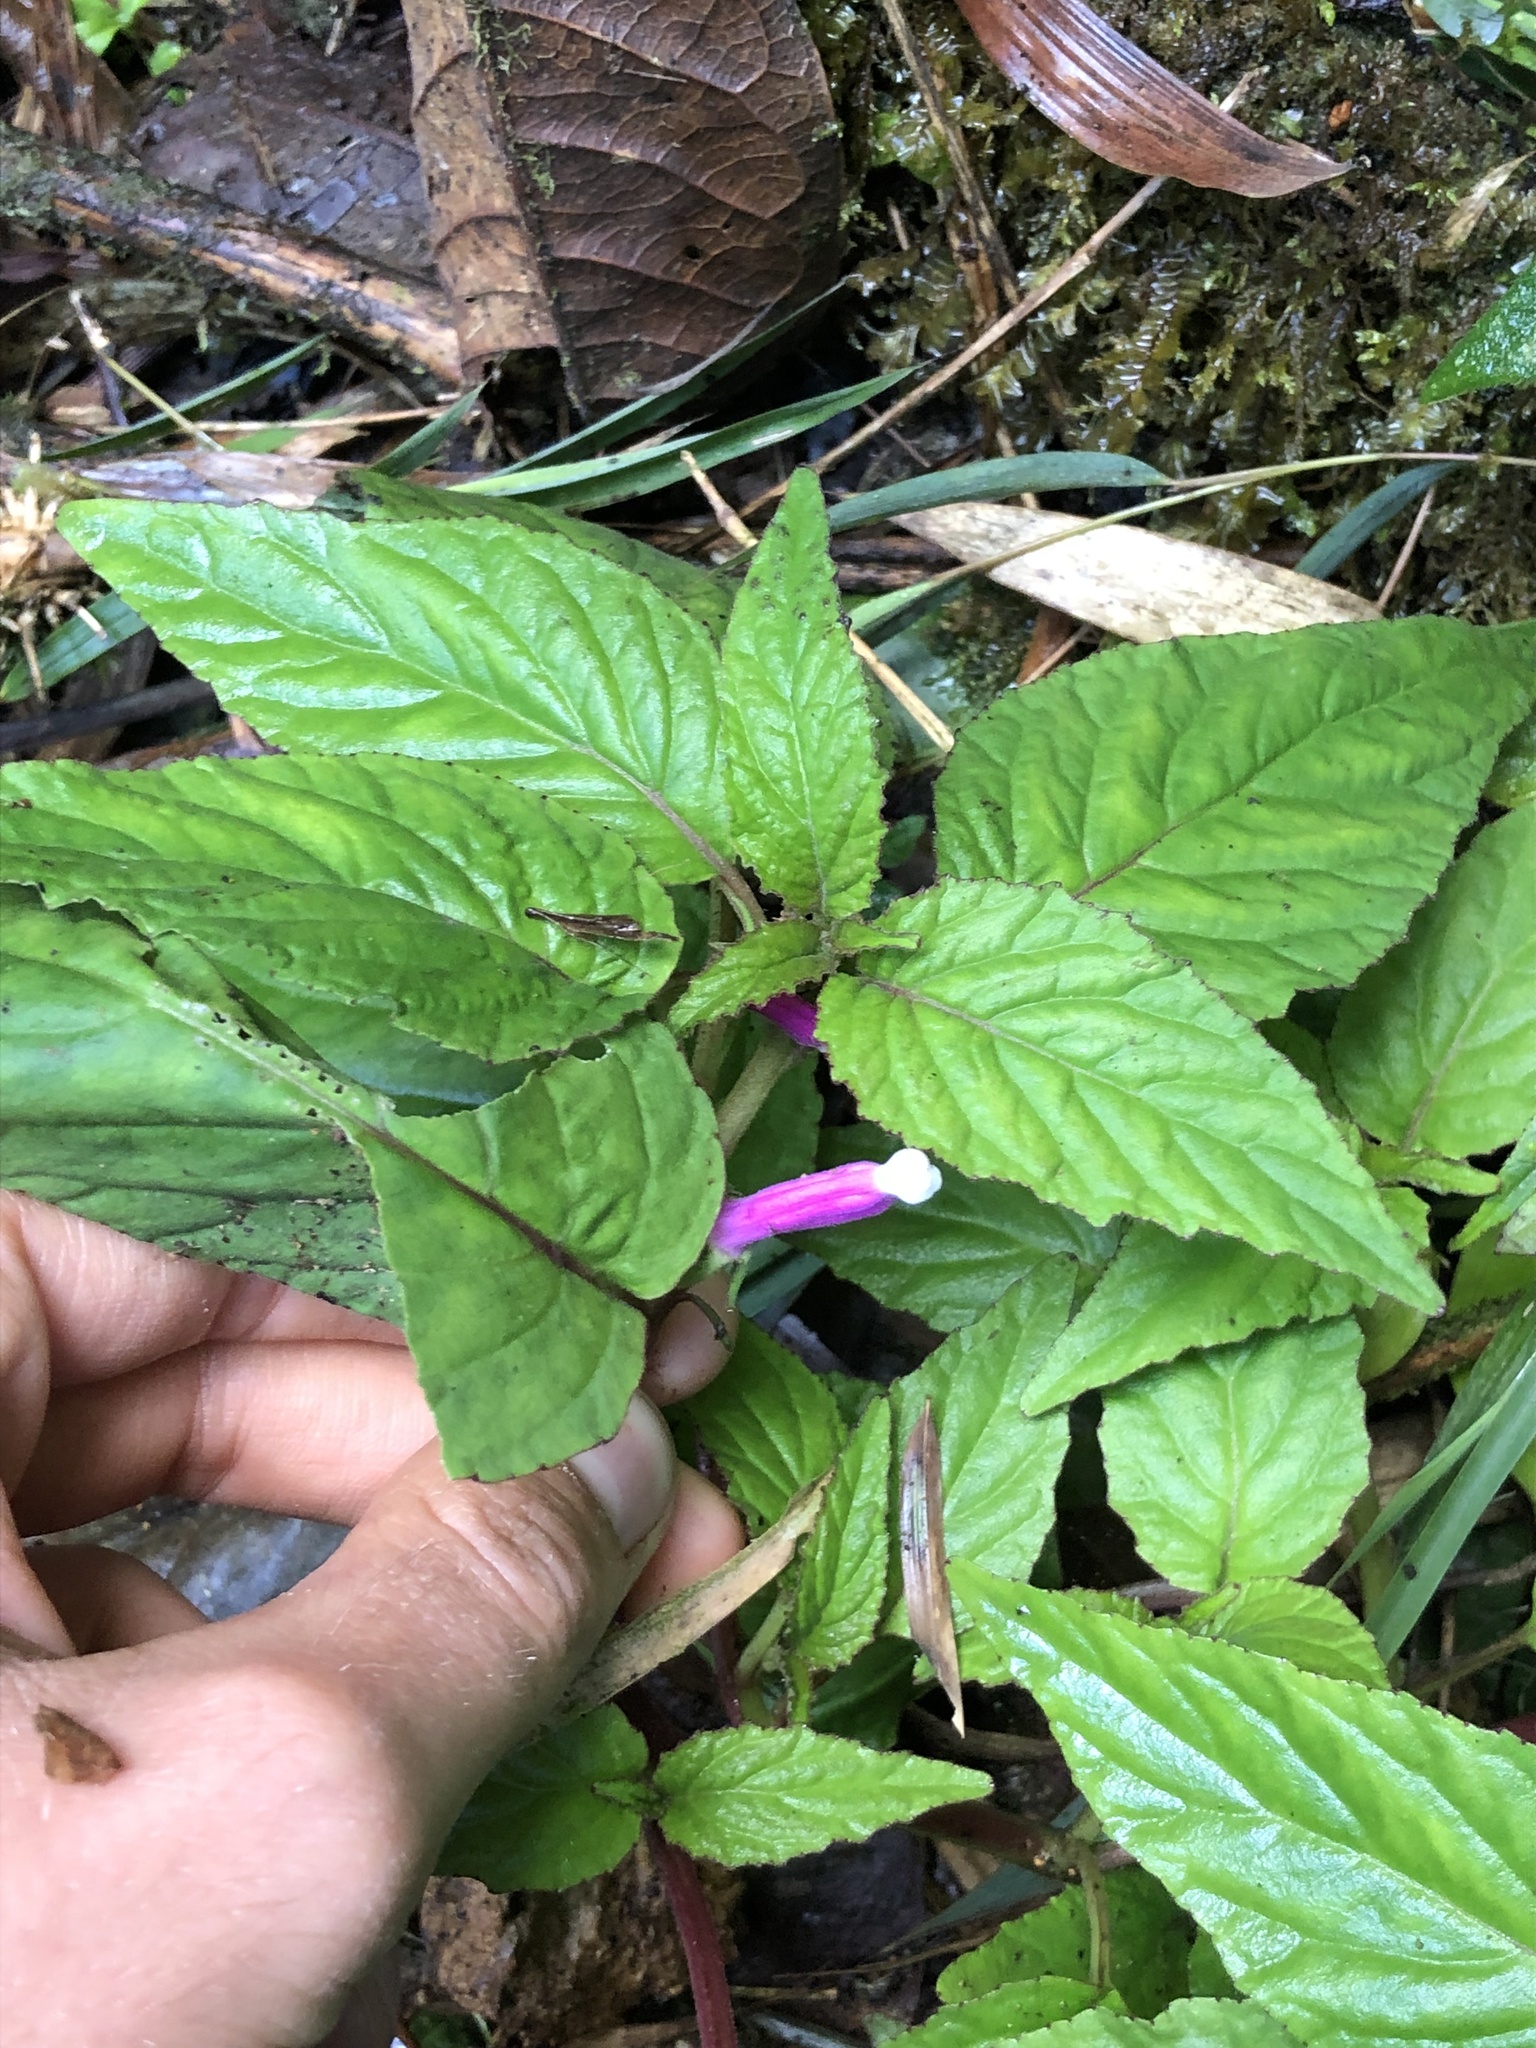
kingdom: Plantae
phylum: Tracheophyta
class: Magnoliopsida
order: Asterales
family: Campanulaceae
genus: Centropogon
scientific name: Centropogon leucophyllus
